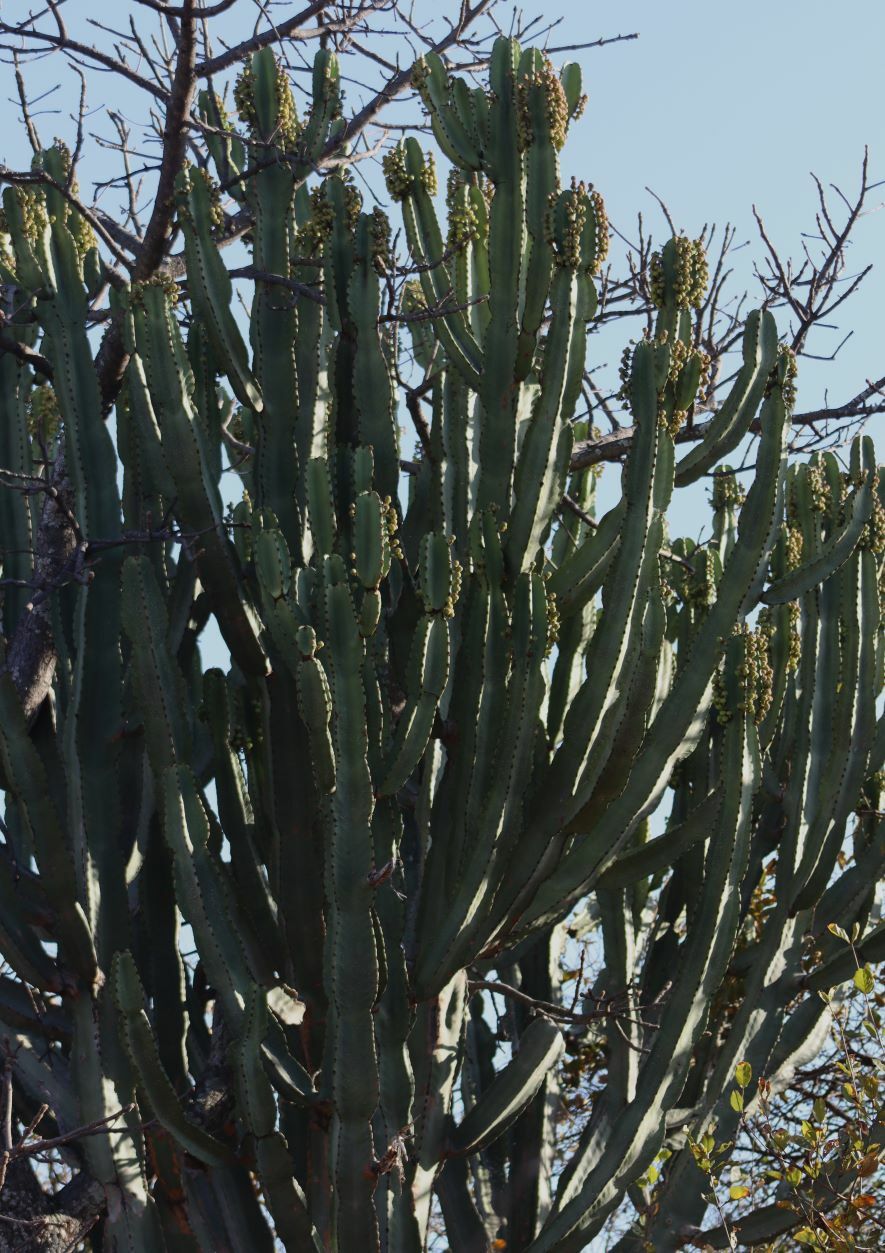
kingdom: Plantae
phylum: Tracheophyta
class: Magnoliopsida
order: Malpighiales
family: Euphorbiaceae
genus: Euphorbia
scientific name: Euphorbia ingens
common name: Cactus spurge
